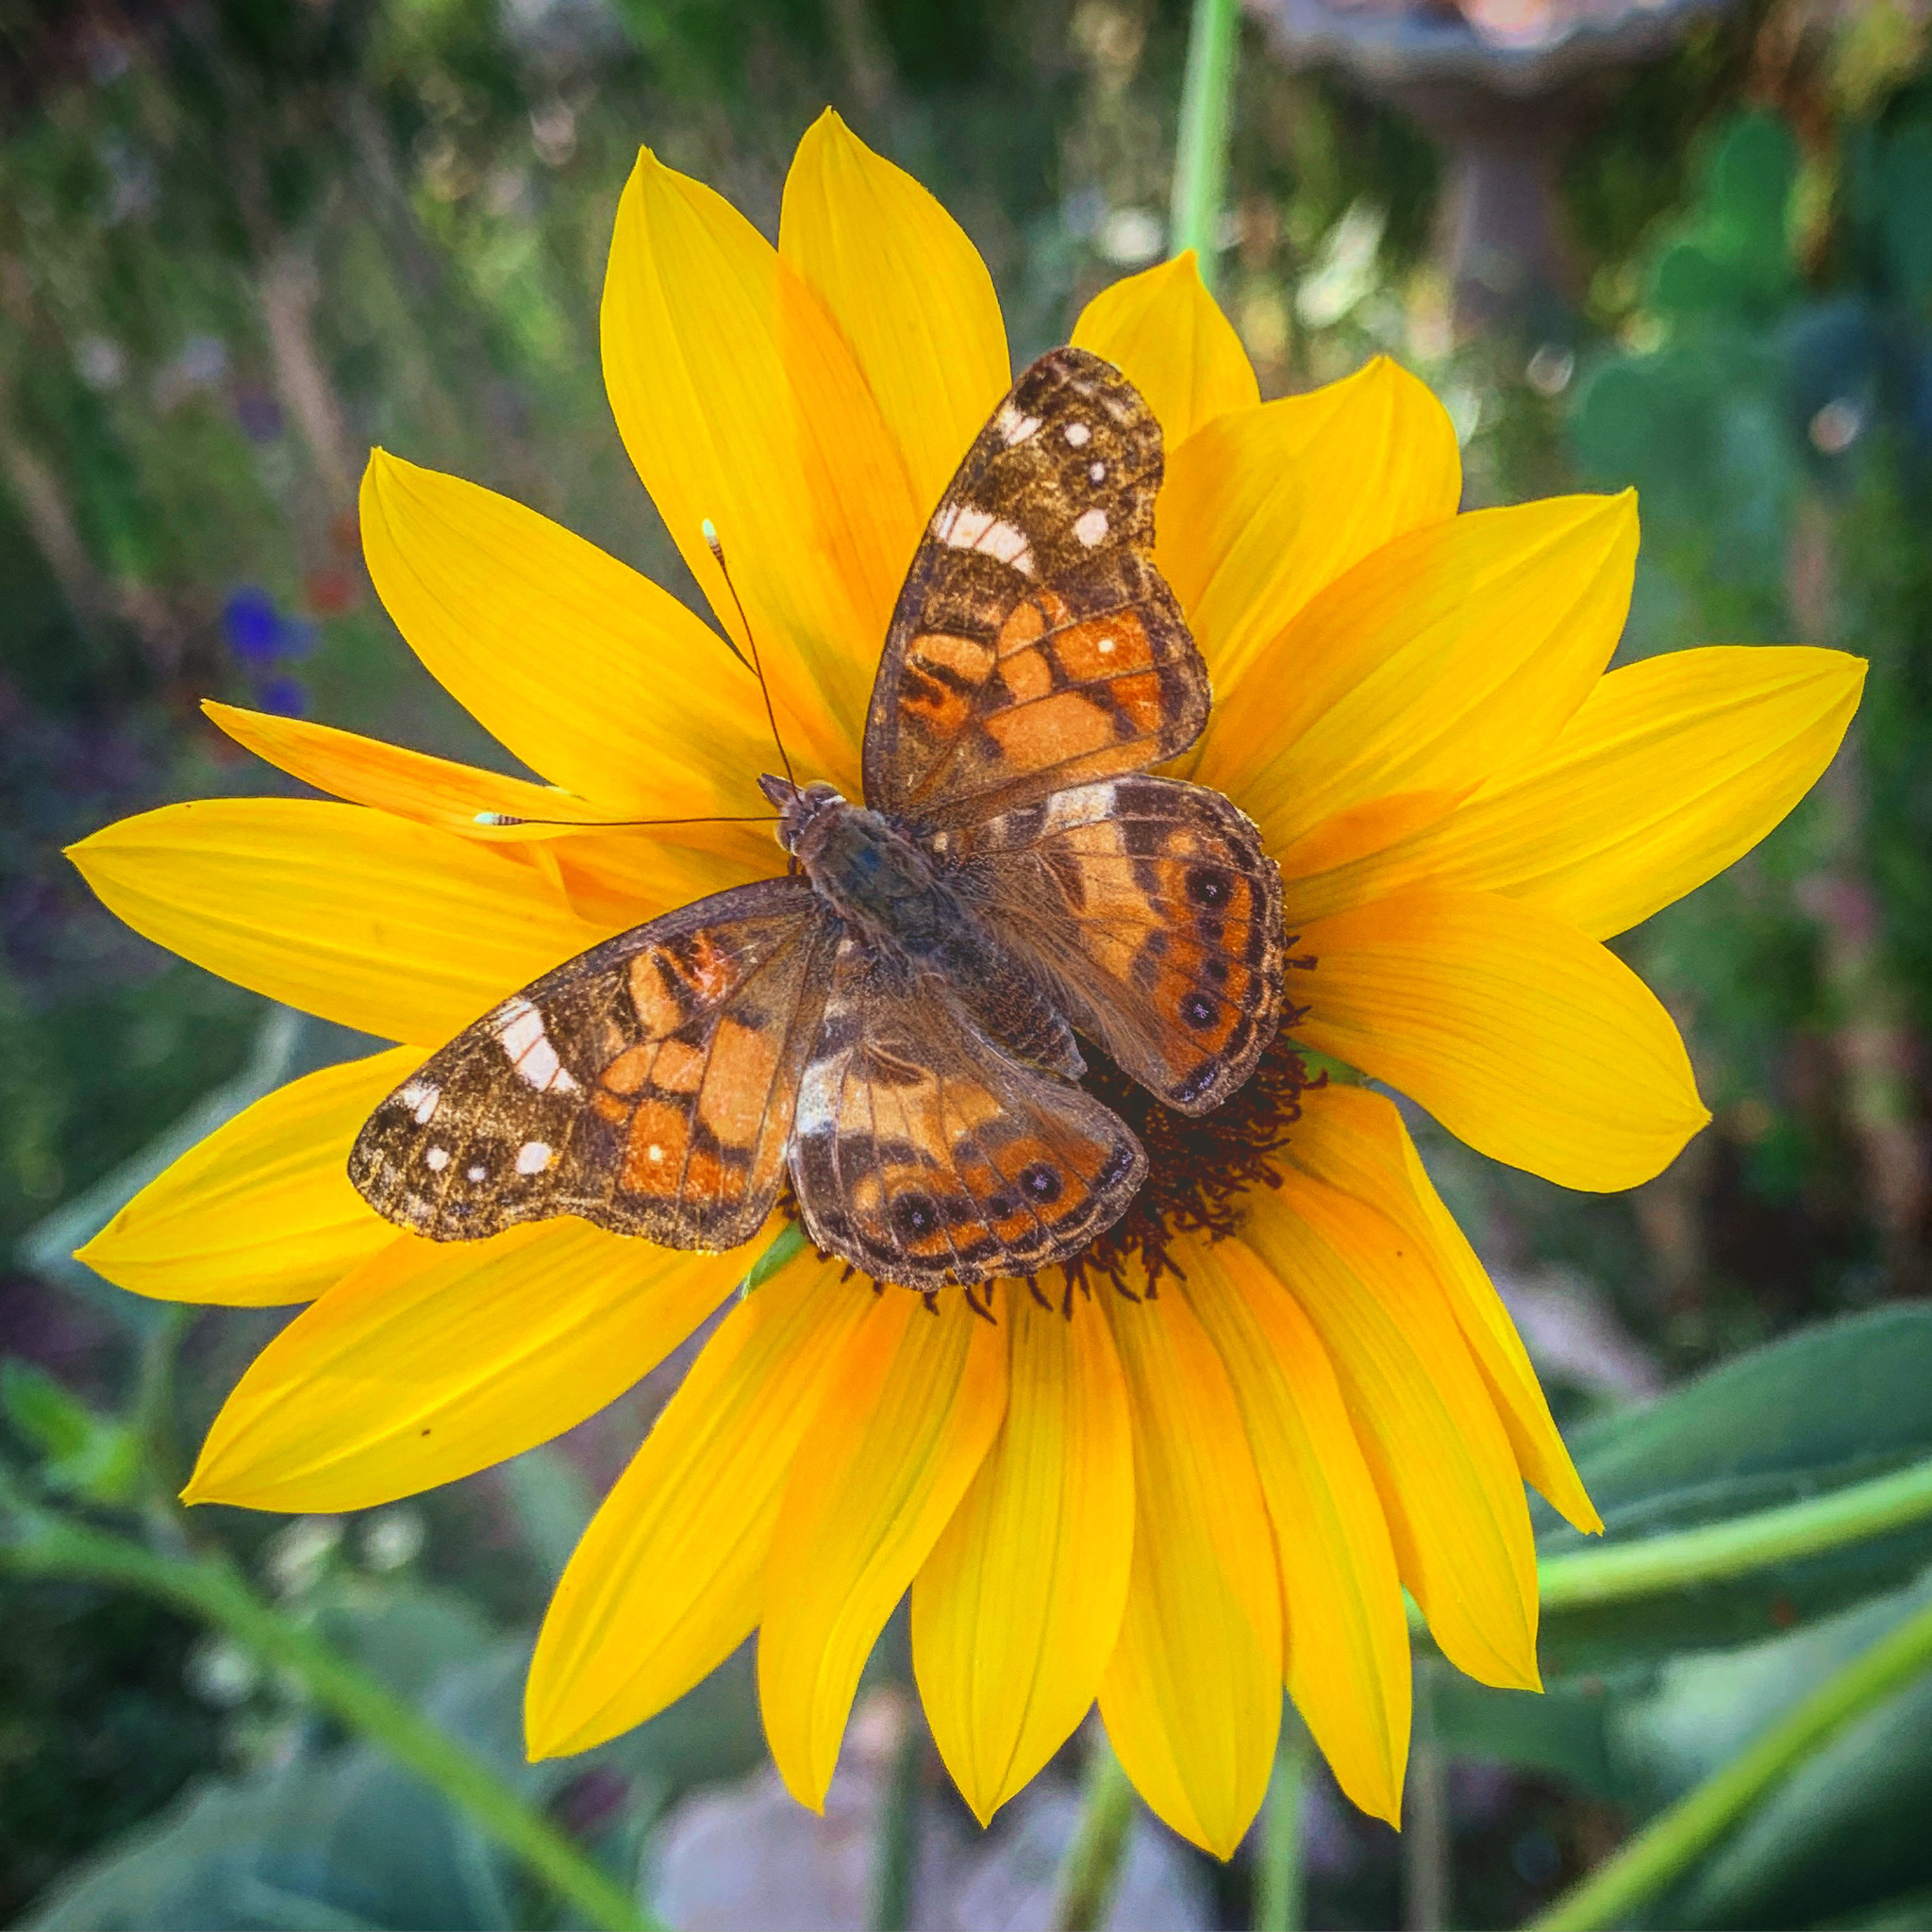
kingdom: Animalia
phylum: Arthropoda
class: Insecta
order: Lepidoptera
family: Nymphalidae
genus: Vanessa
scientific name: Vanessa virginiensis
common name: American lady
